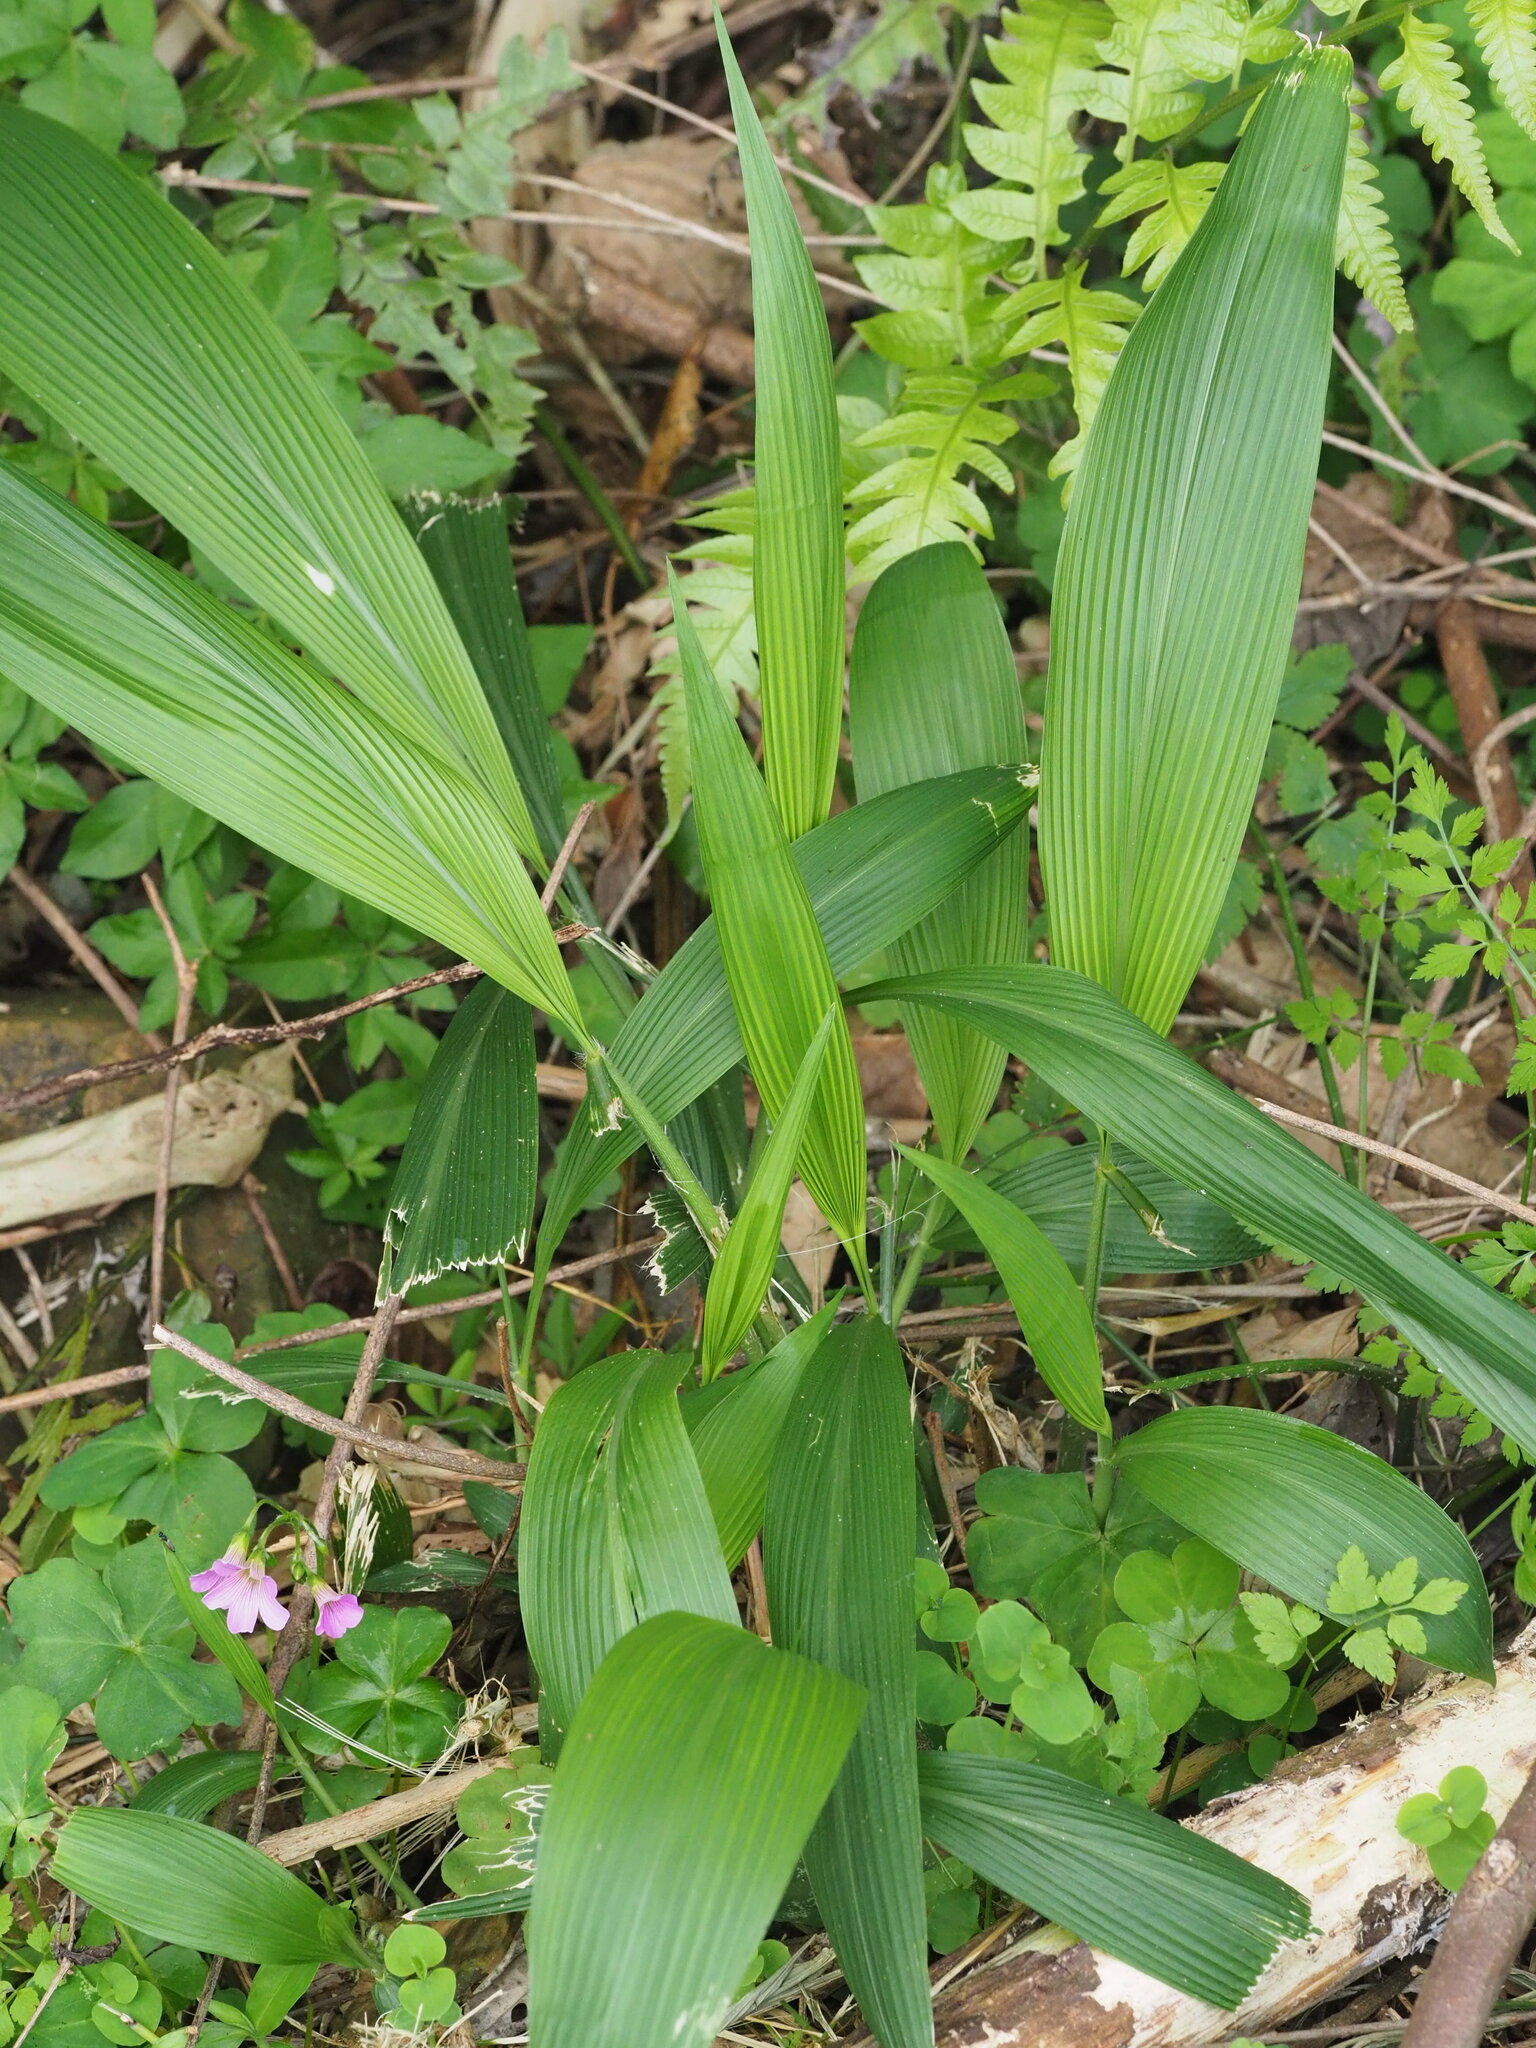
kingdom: Plantae
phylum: Tracheophyta
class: Liliopsida
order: Poales
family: Poaceae
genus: Setaria
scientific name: Setaria palmifolia
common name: Broadleaved bristlegrass
